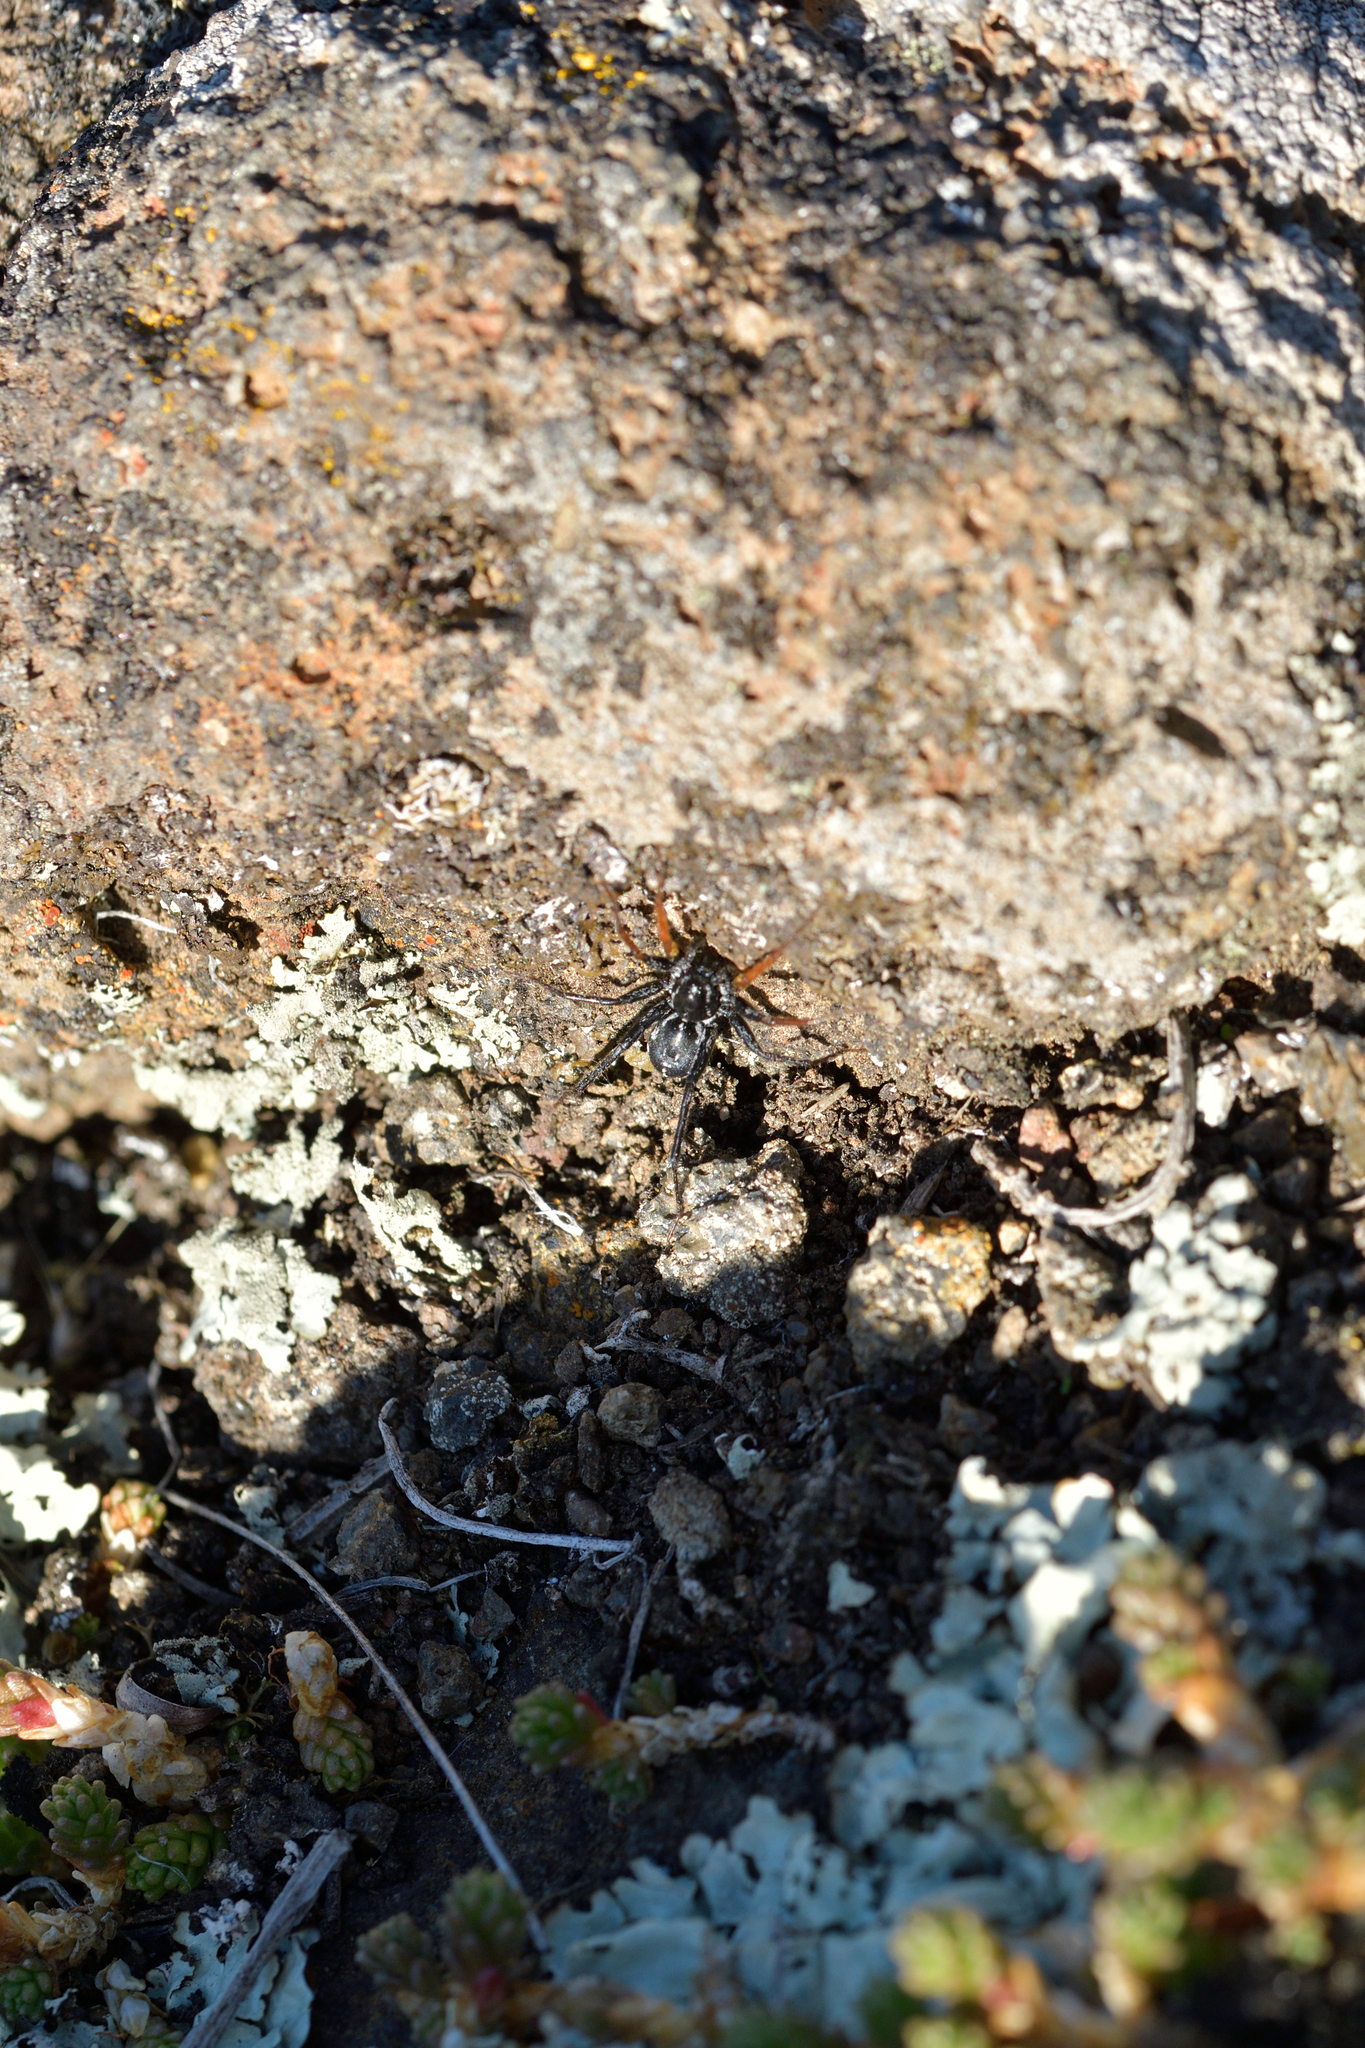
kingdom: Animalia
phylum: Arthropoda
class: Arachnida
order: Araneae
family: Corinnidae
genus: Nyssus
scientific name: Nyssus coloripes
